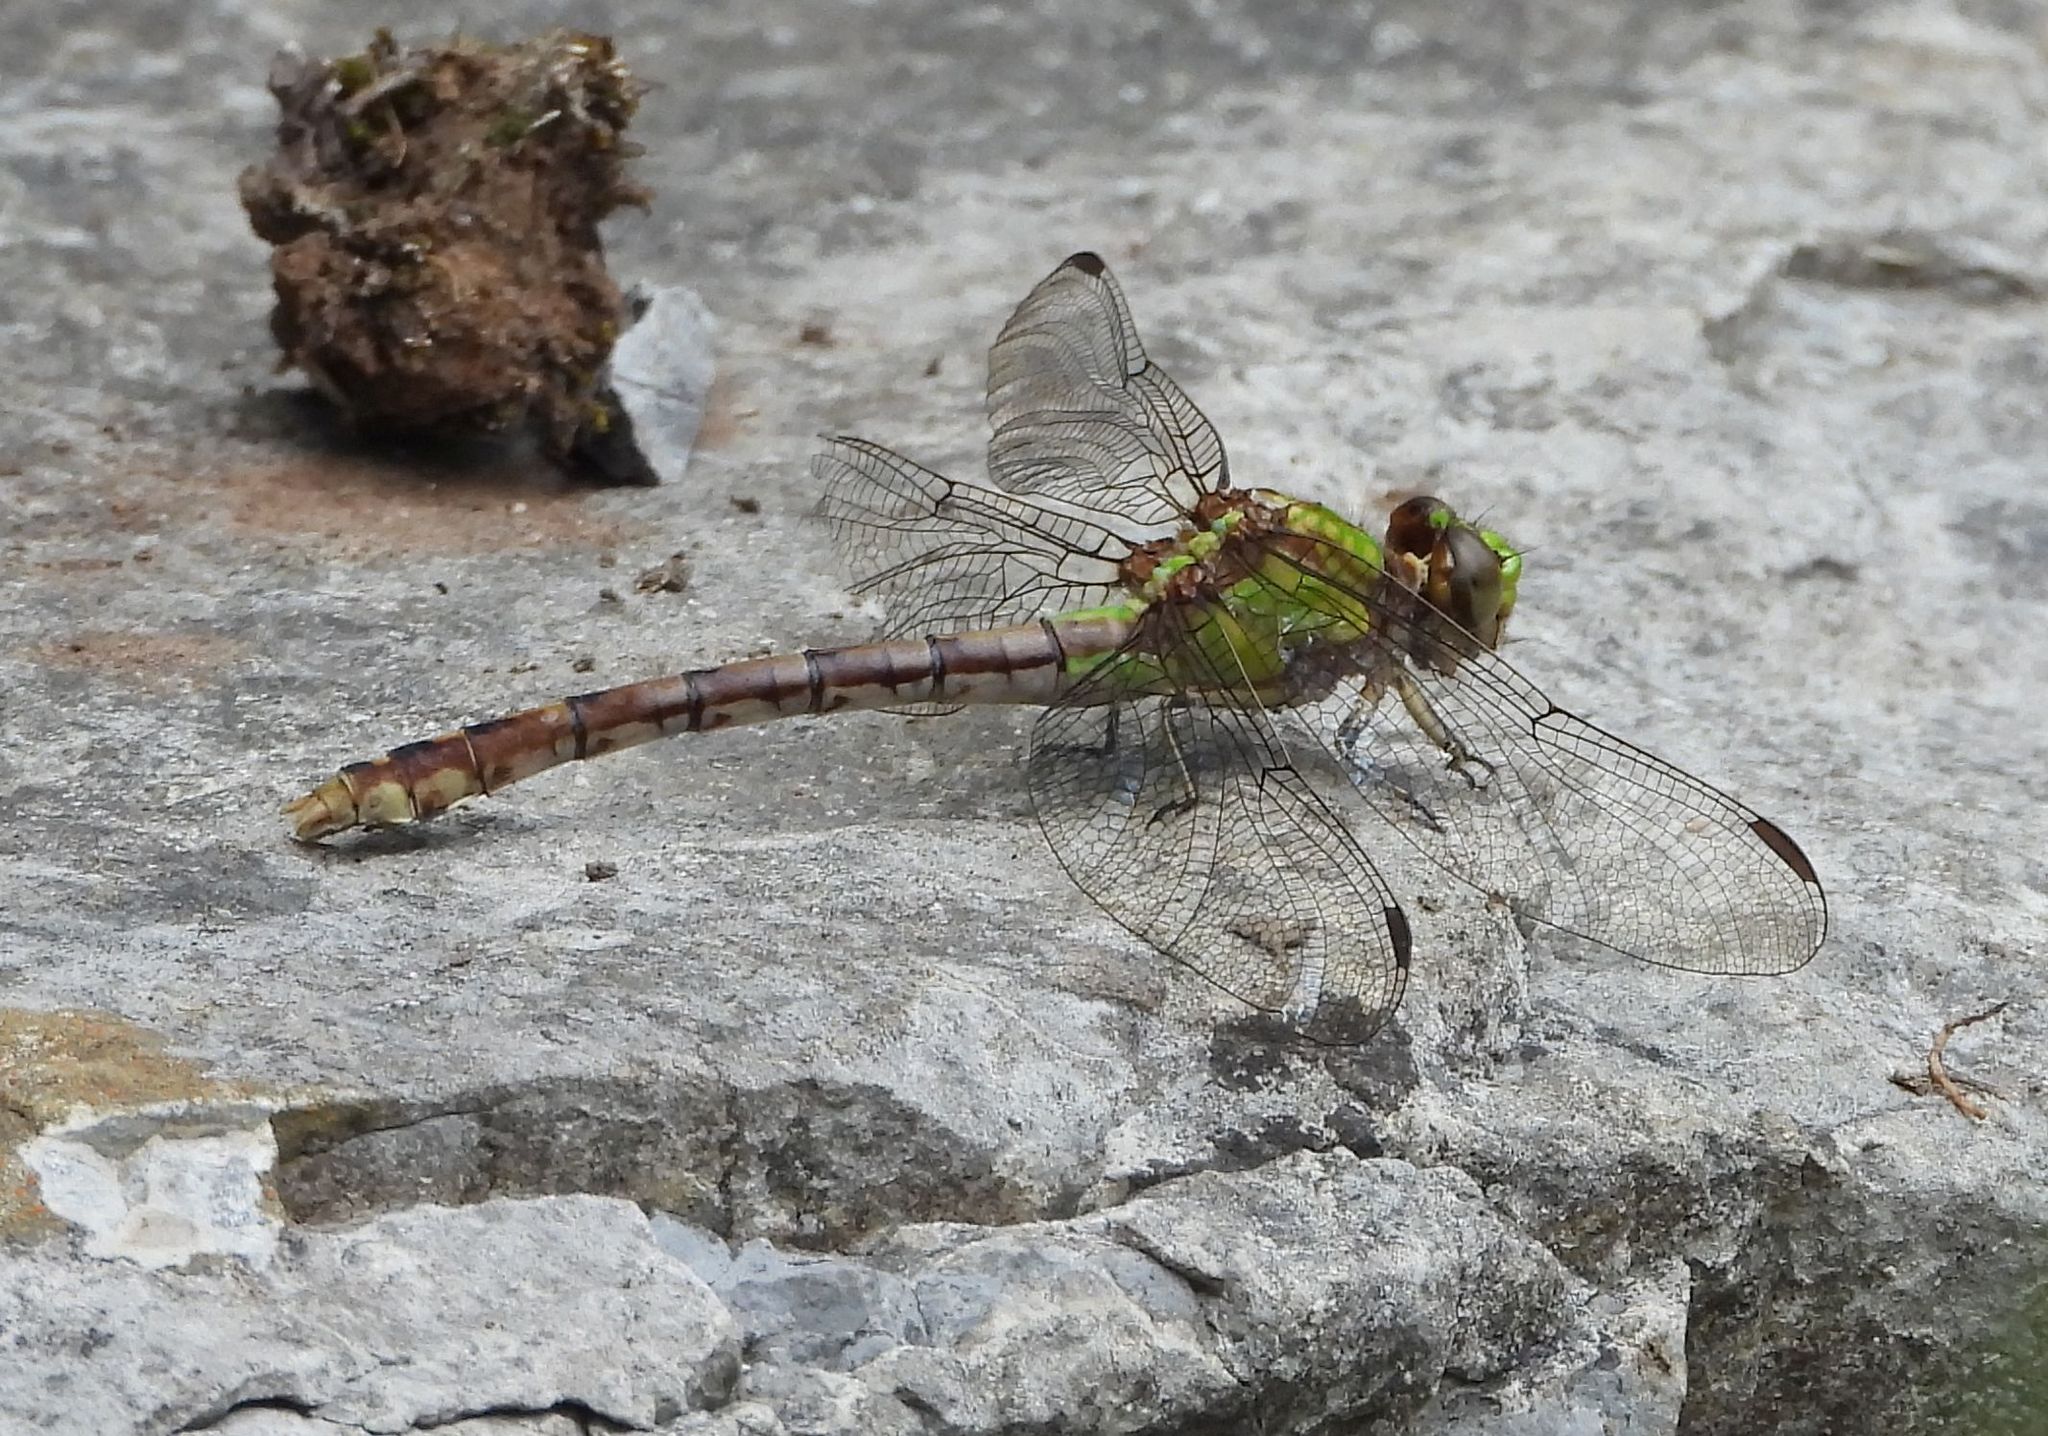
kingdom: Animalia
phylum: Arthropoda
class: Insecta
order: Odonata
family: Gomphidae
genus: Ophiogomphus
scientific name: Ophiogomphus rupinsulensis
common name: Rusty snaketail
